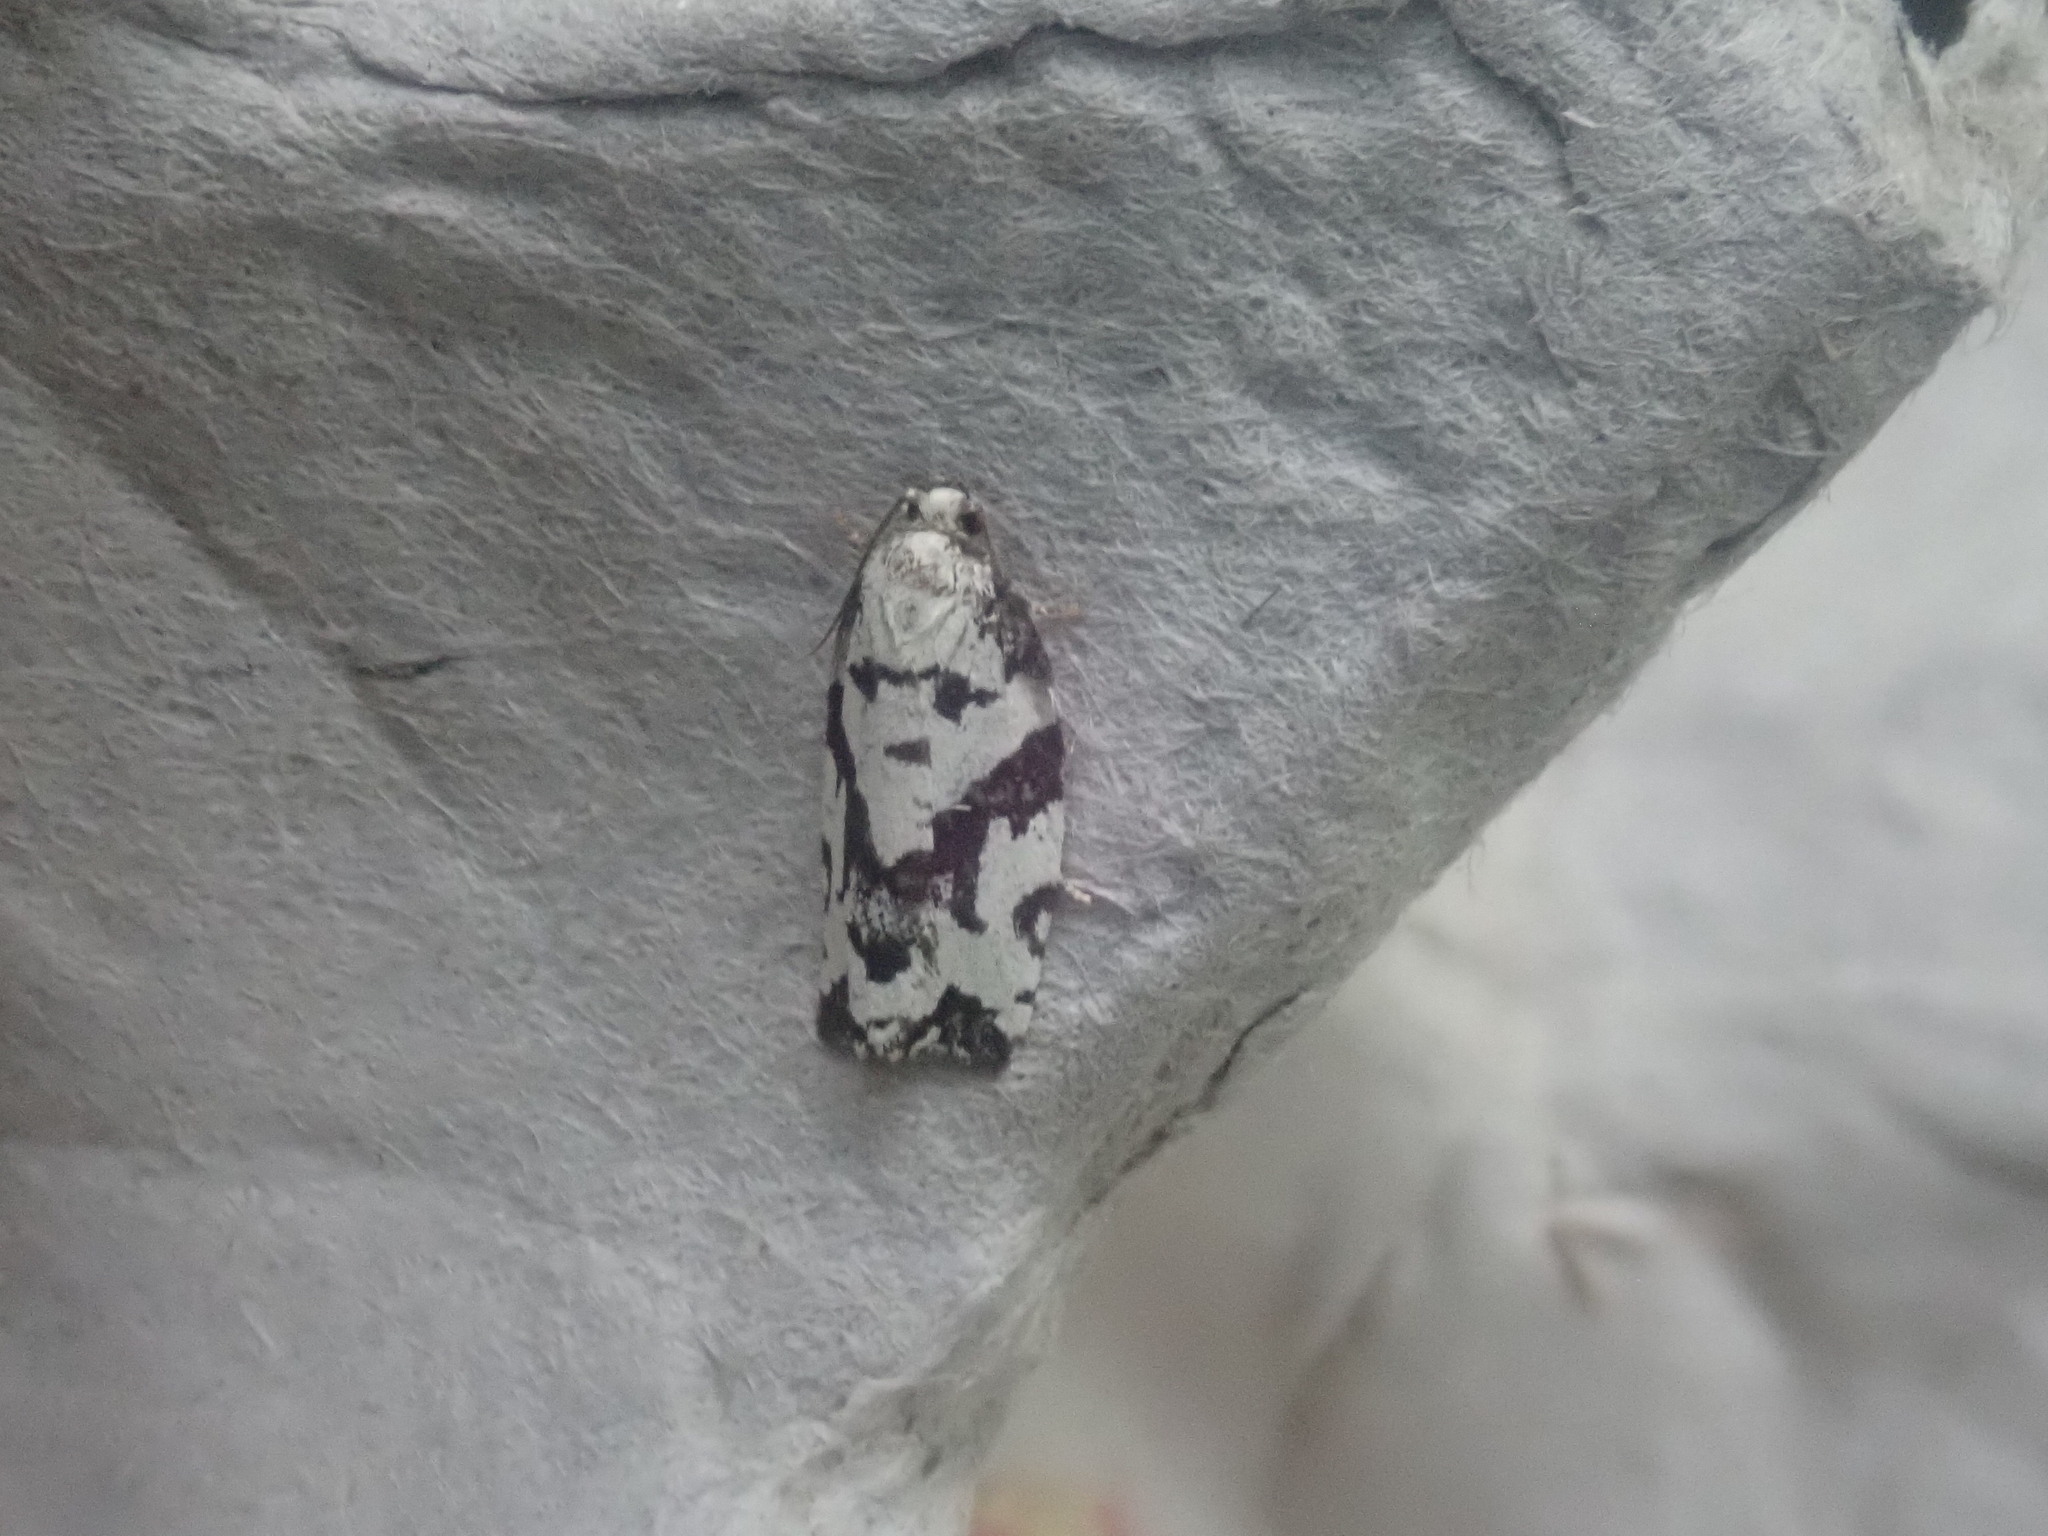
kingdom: Animalia
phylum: Arthropoda
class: Insecta
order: Lepidoptera
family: Tortricidae
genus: Archips
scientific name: Archips dissitana
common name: Boldly-marked archips moth
